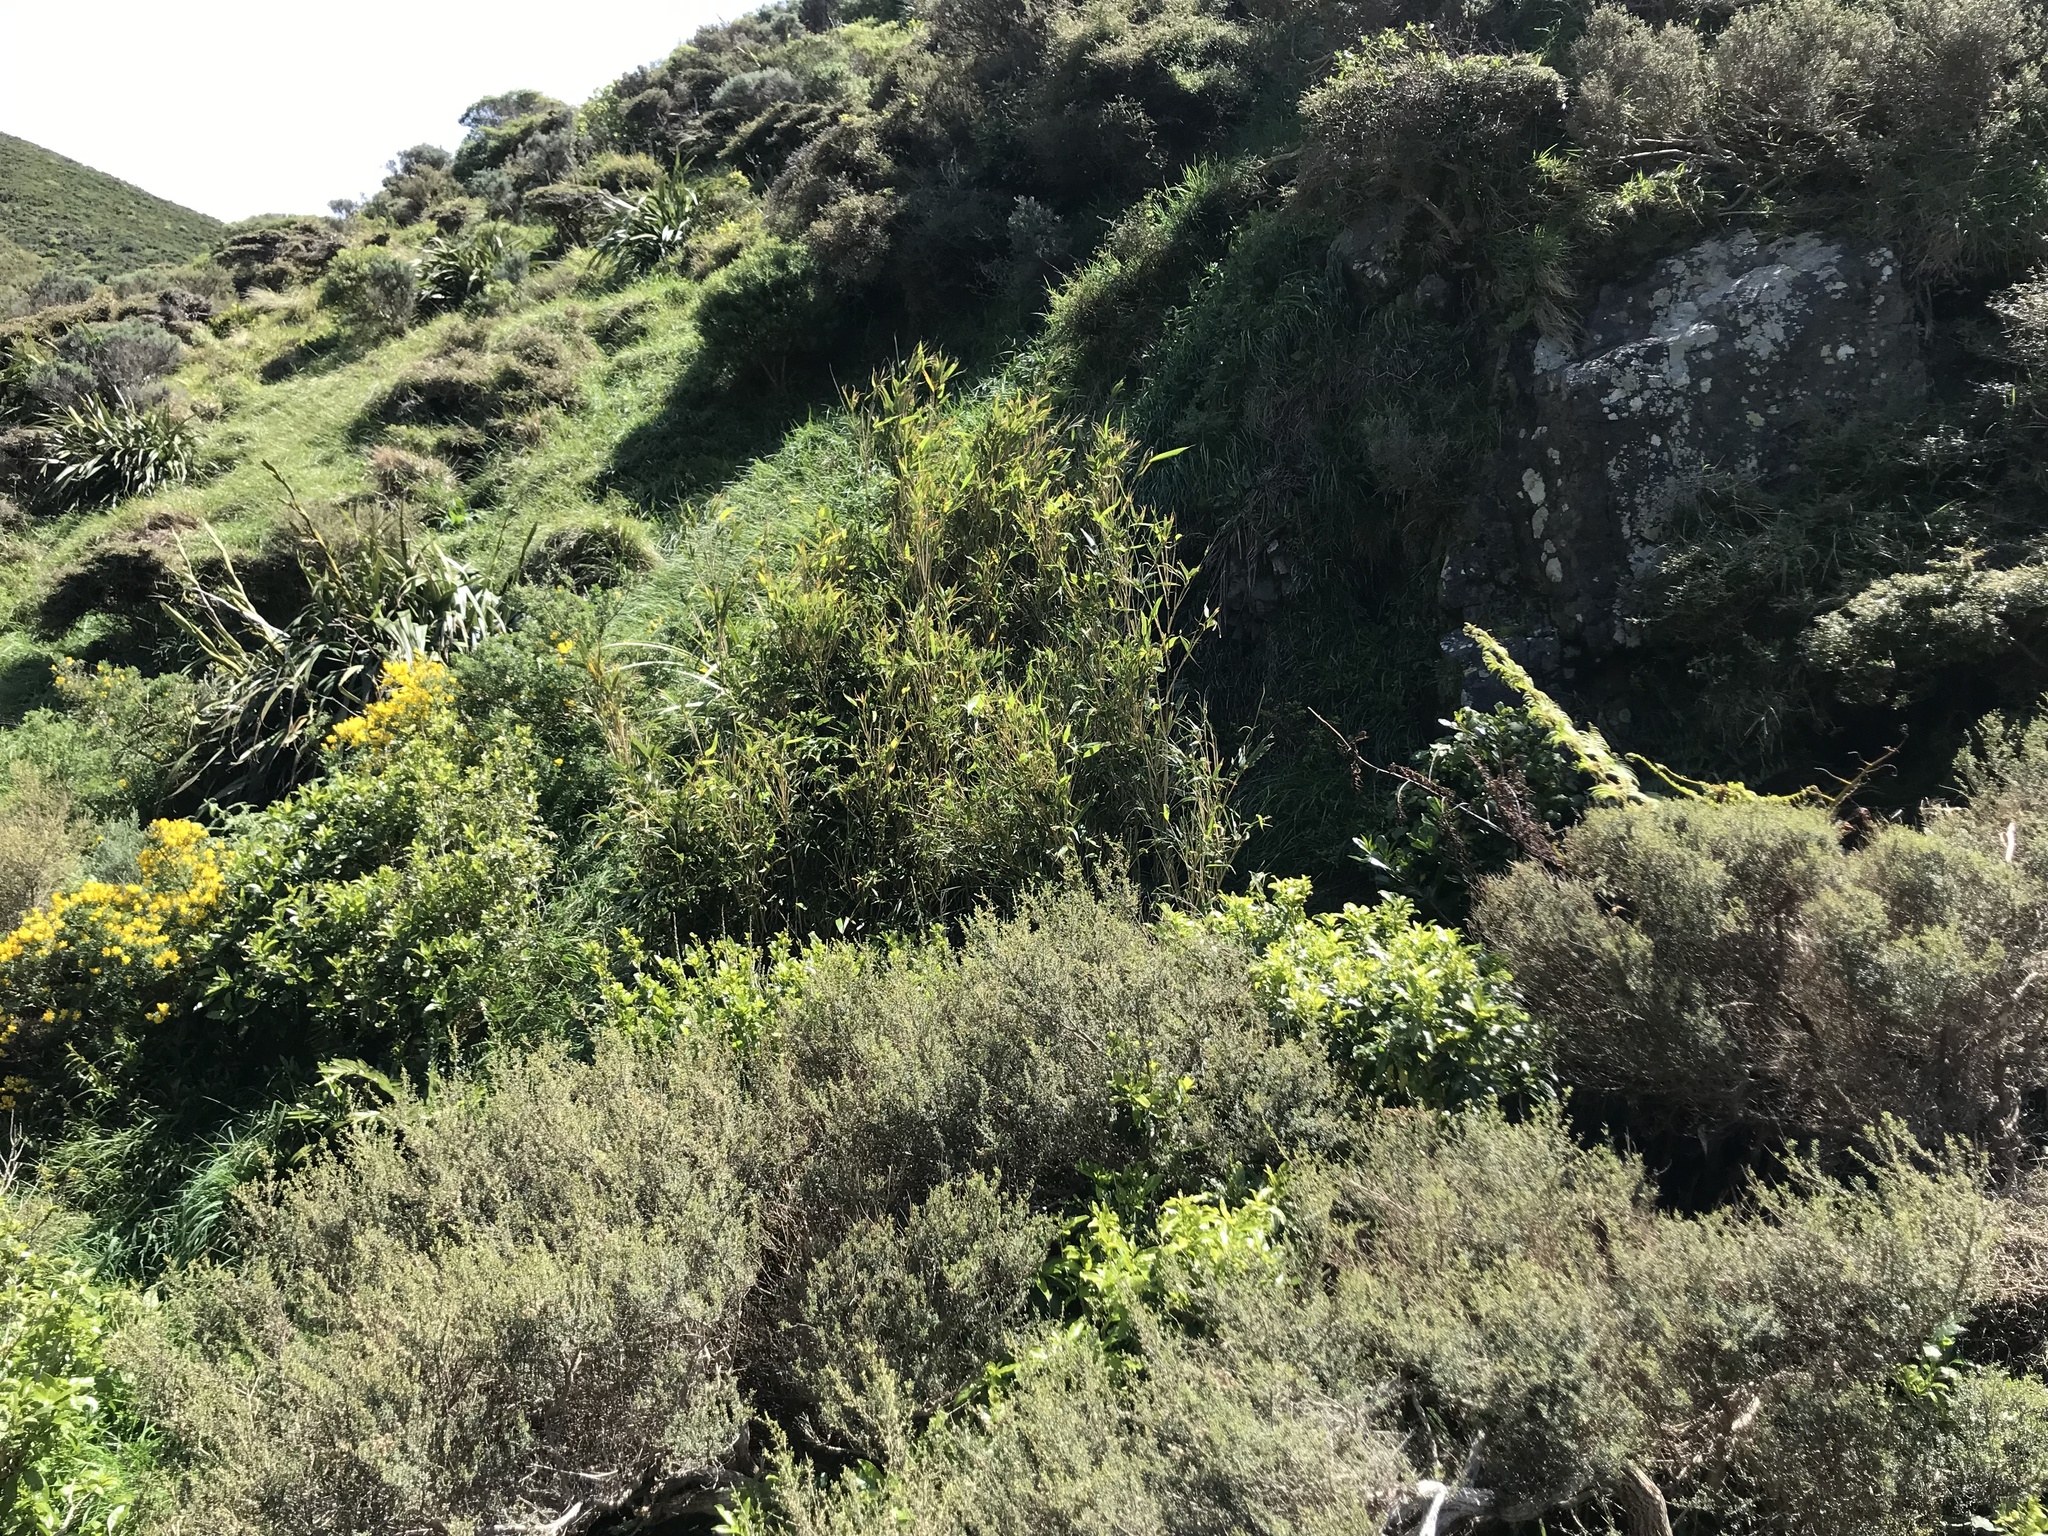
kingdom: Plantae
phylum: Tracheophyta
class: Liliopsida
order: Poales
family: Poaceae
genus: Pseudosasa
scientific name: Pseudosasa japonica
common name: Arrow bamboo
